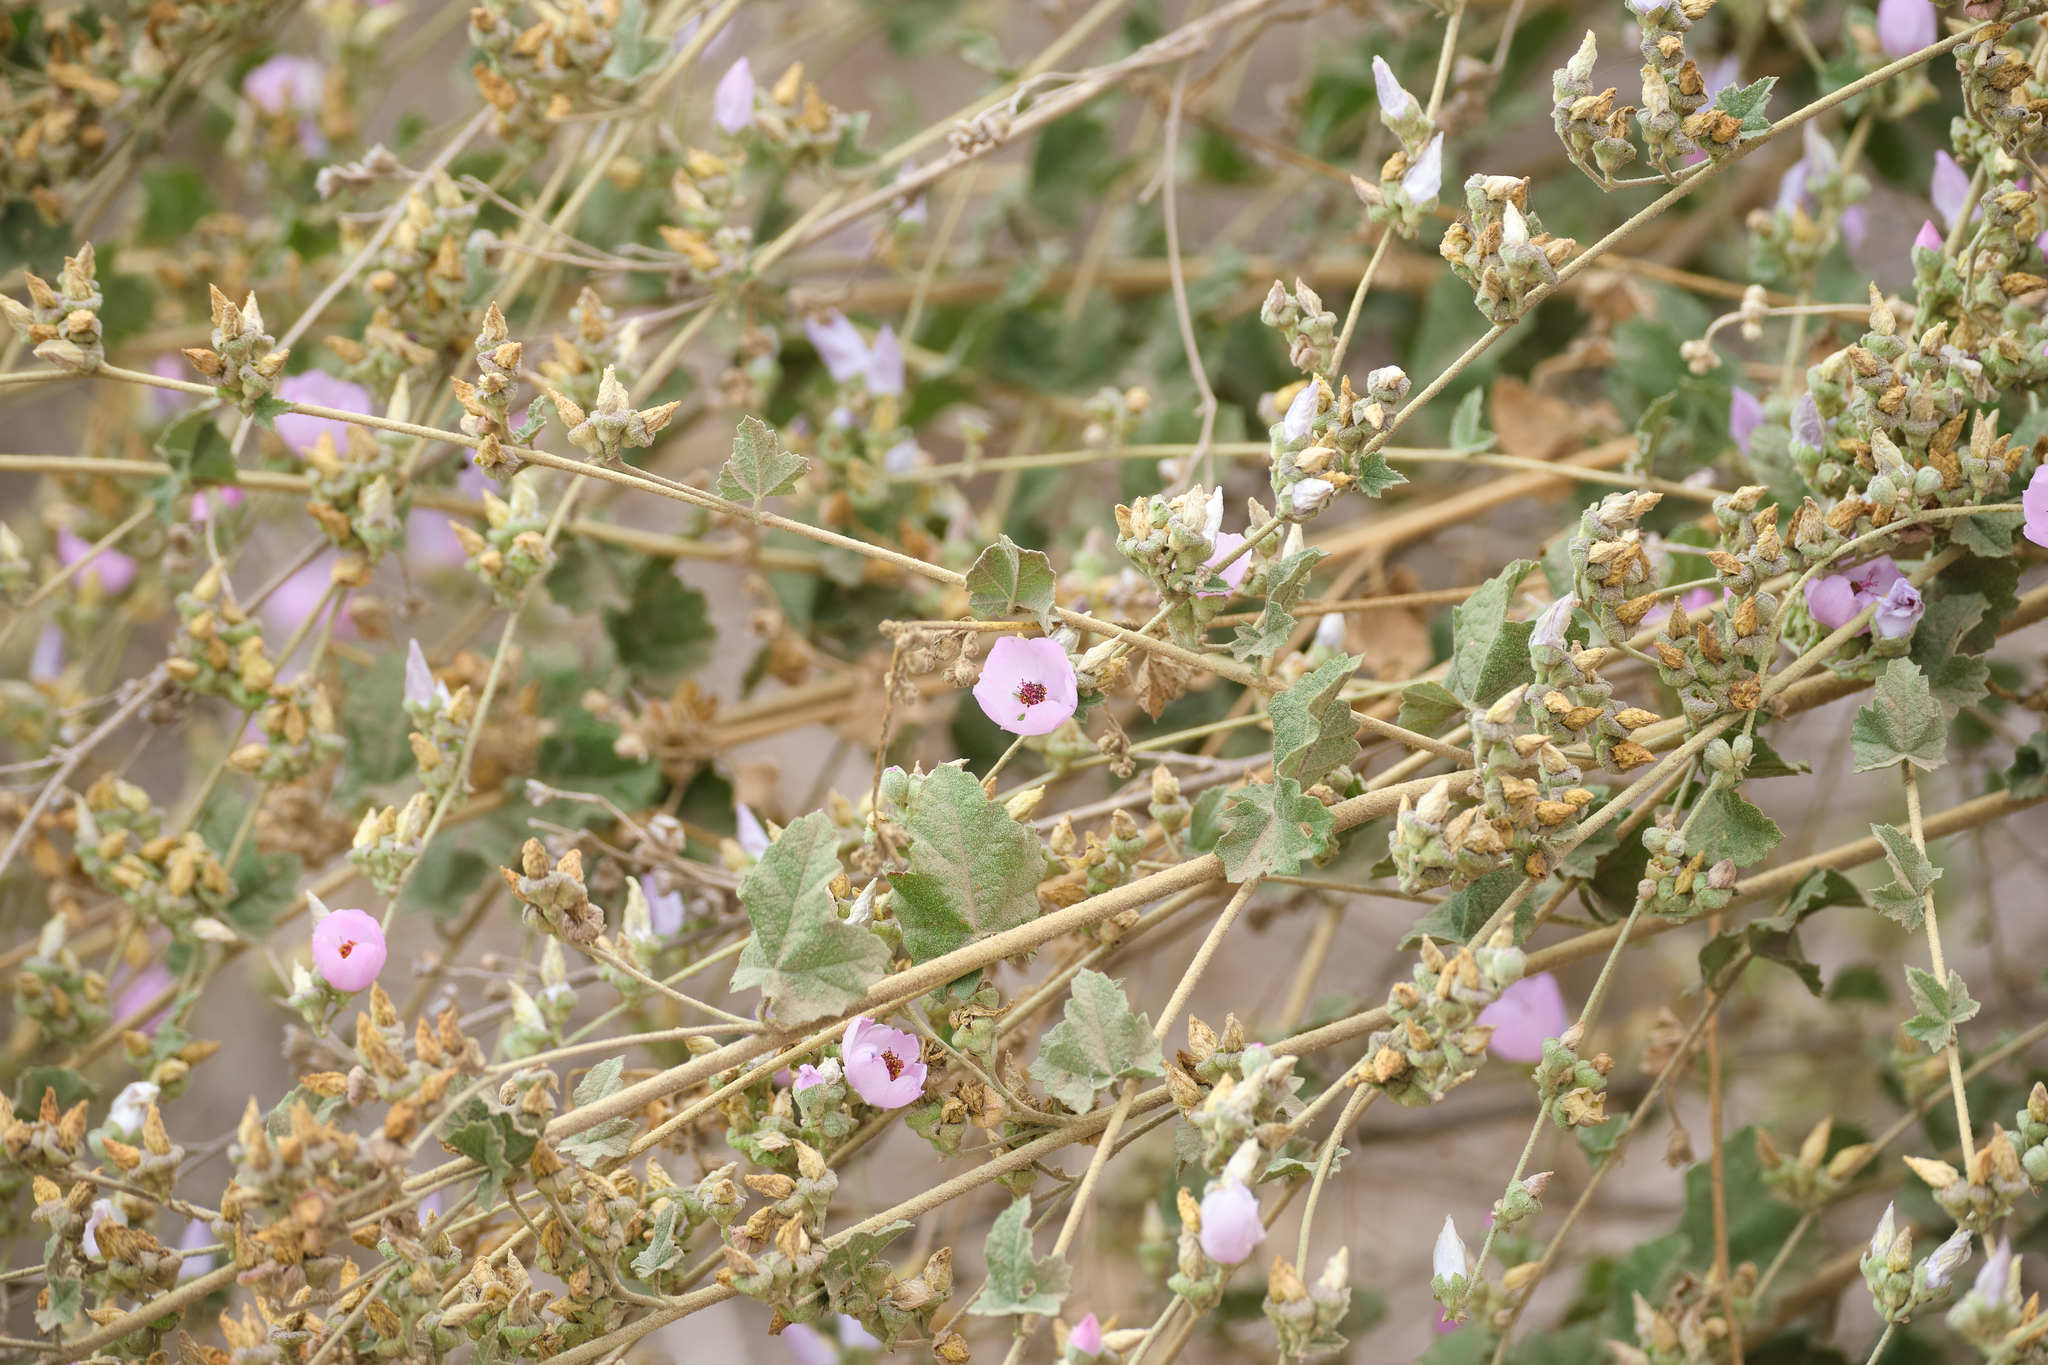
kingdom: Plantae
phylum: Tracheophyta
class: Magnoliopsida
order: Malvales
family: Malvaceae
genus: Malacothamnus
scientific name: Malacothamnus fasciculatus
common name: Sant cruz island bush-mallow
